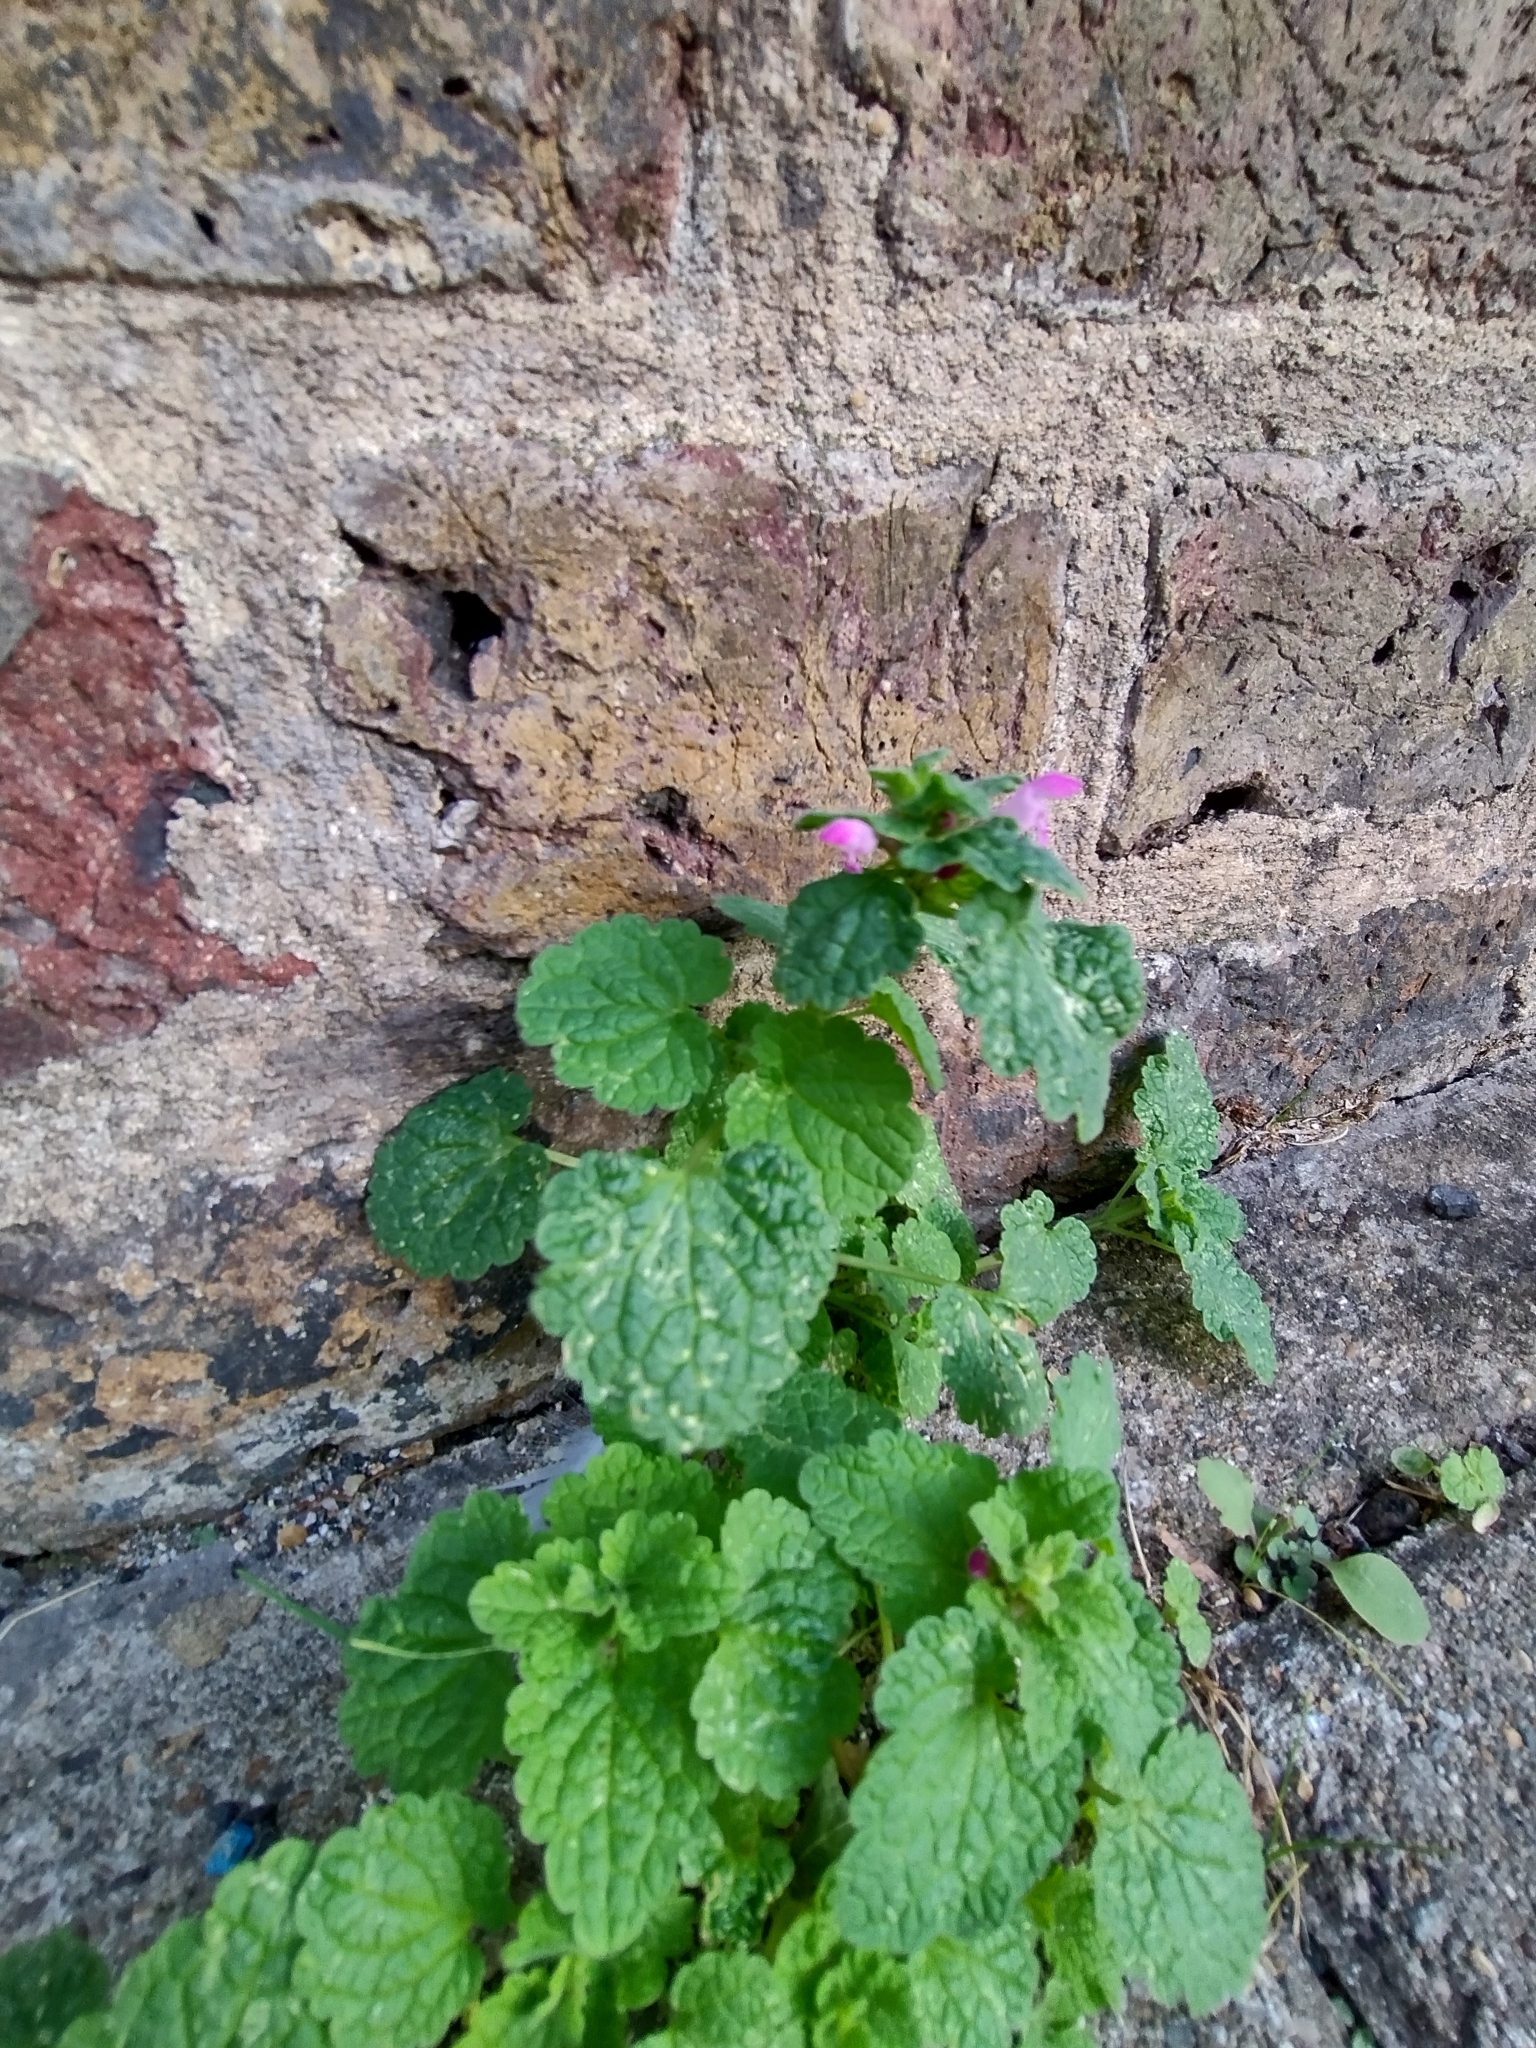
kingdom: Plantae
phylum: Tracheophyta
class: Magnoliopsida
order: Lamiales
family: Lamiaceae
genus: Lamium
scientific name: Lamium purpureum
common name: Red dead-nettle
